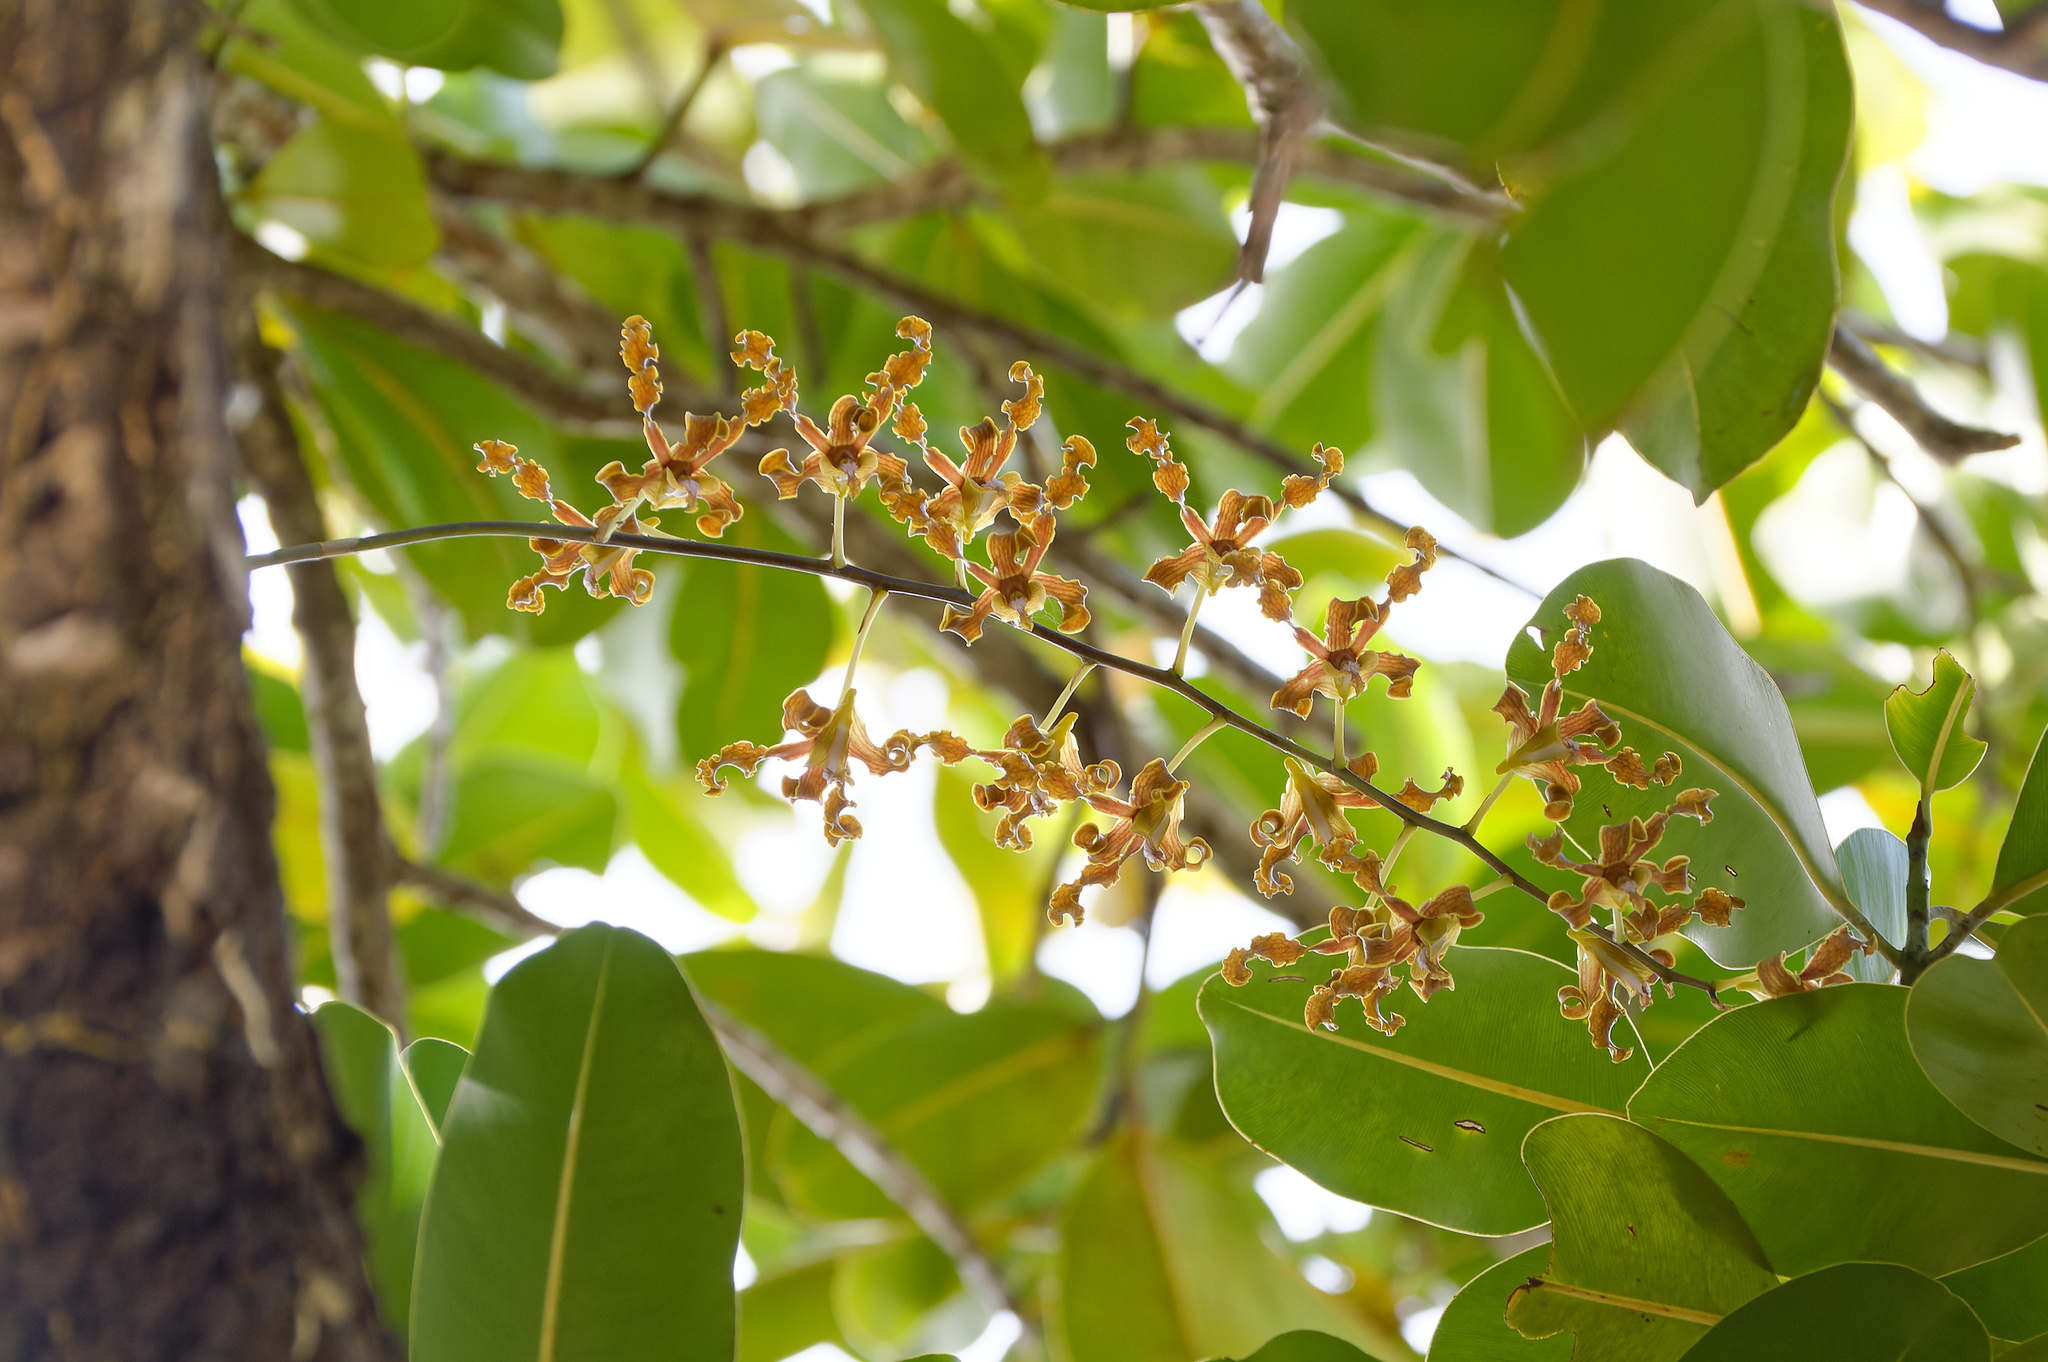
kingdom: Plantae
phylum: Tracheophyta
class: Liliopsida
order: Asparagales
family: Orchidaceae
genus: Dendrobium
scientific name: Dendrobium discolor
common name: Golden antler orchid
